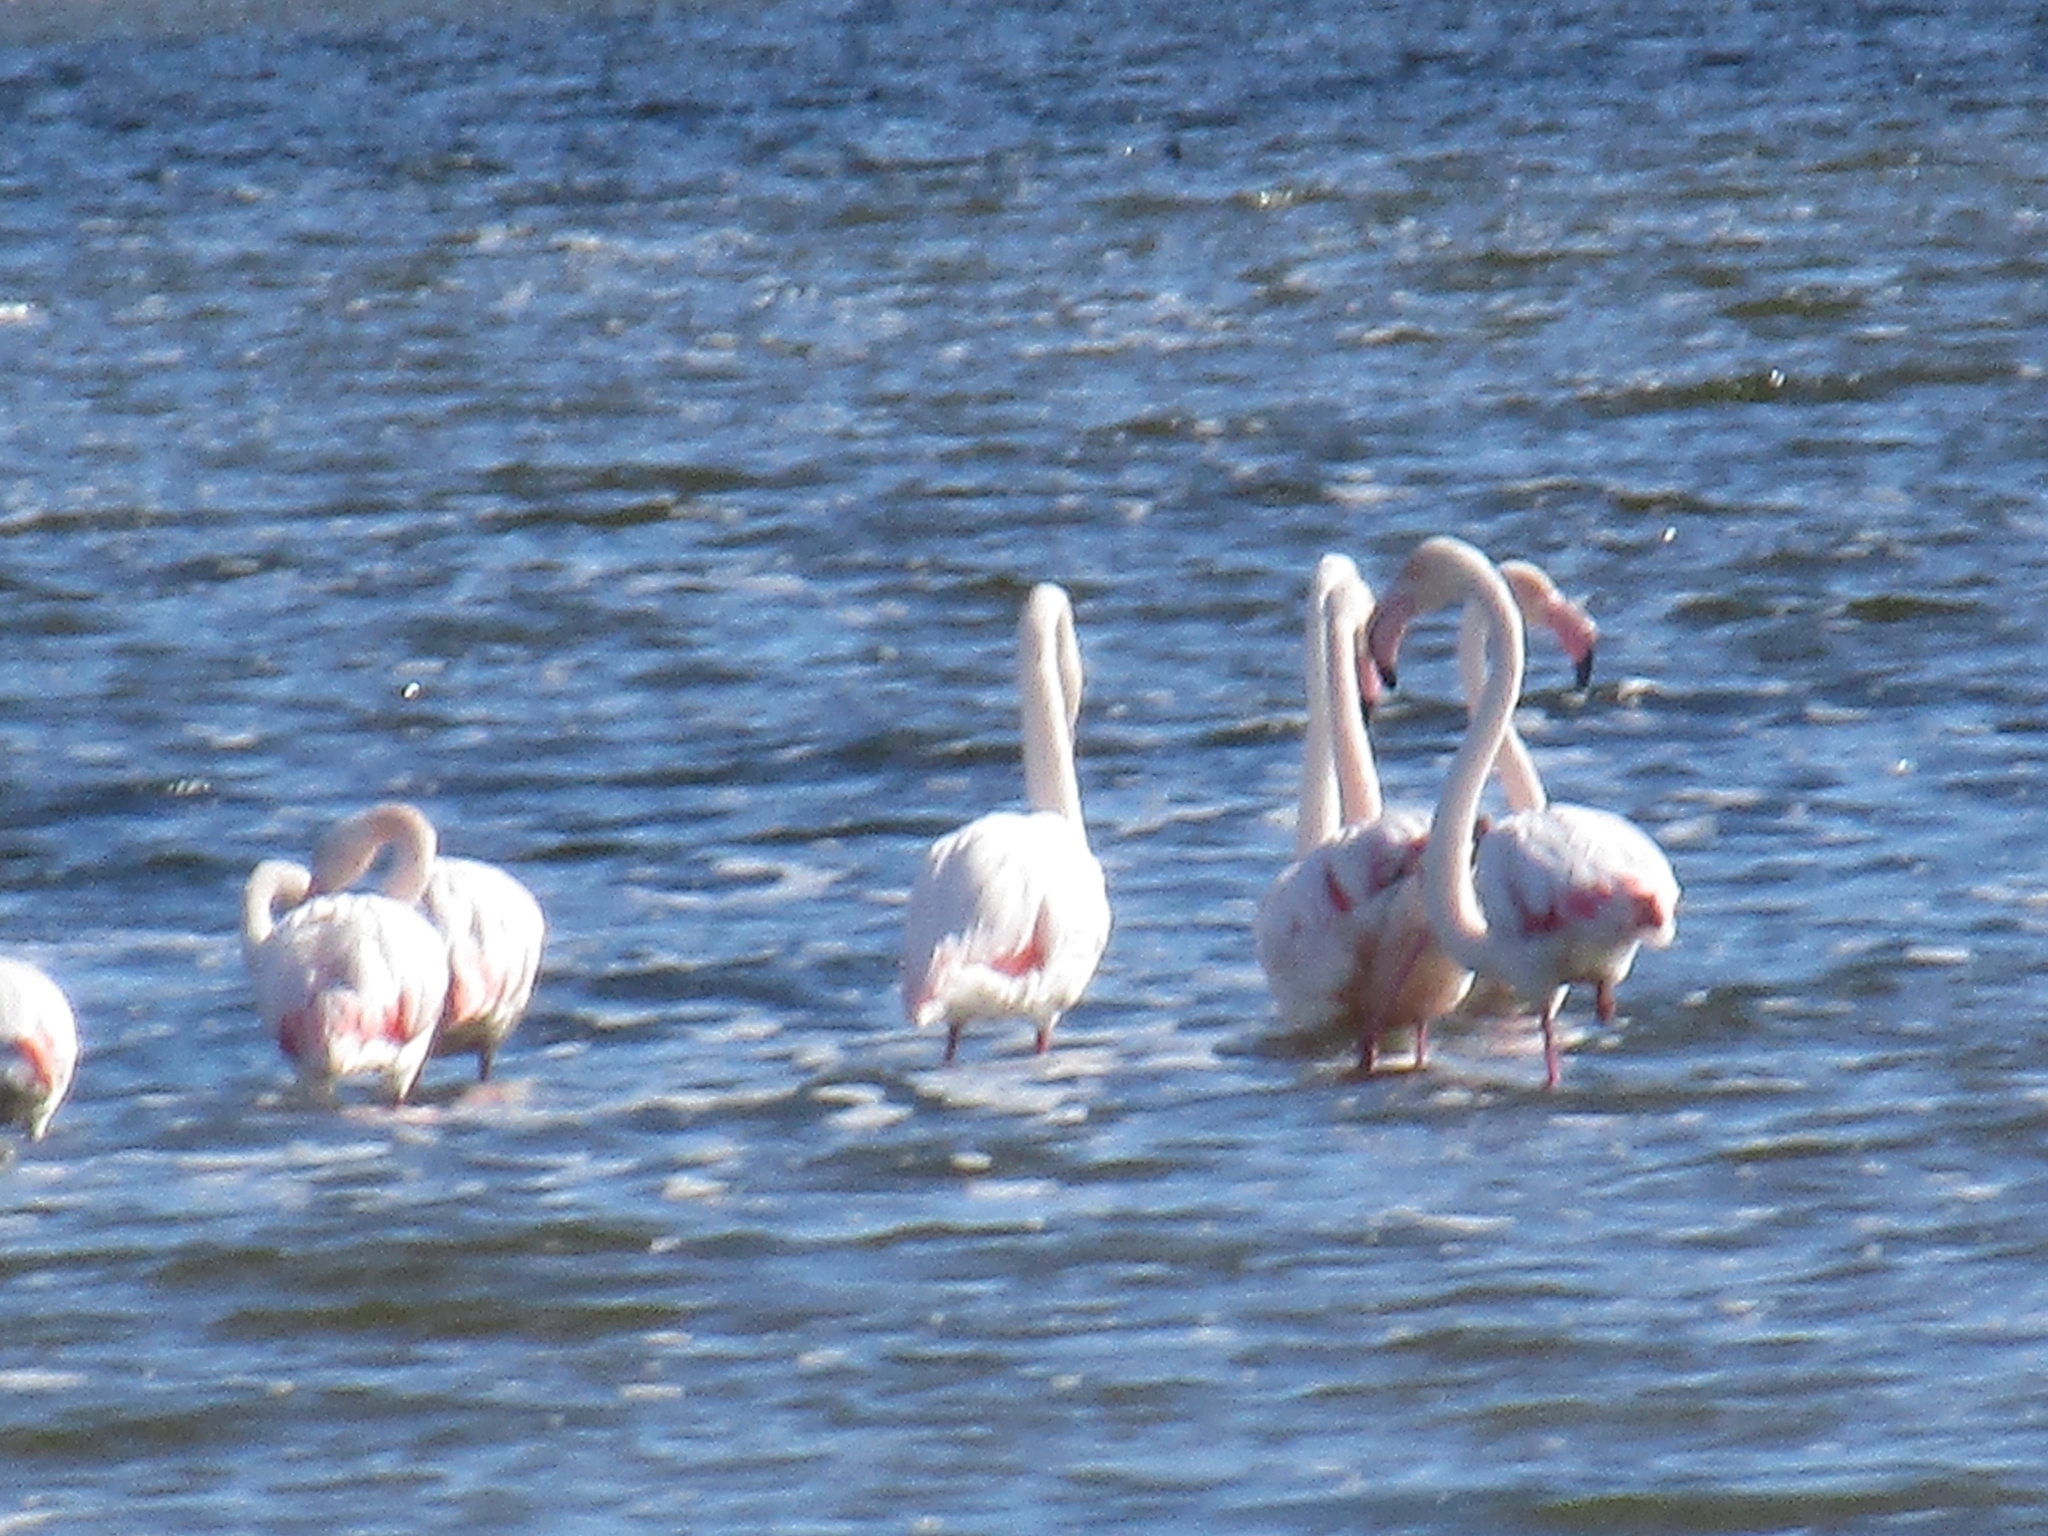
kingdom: Animalia
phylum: Chordata
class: Aves
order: Phoenicopteriformes
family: Phoenicopteridae
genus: Phoenicopterus
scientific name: Phoenicopterus roseus
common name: Greater flamingo
